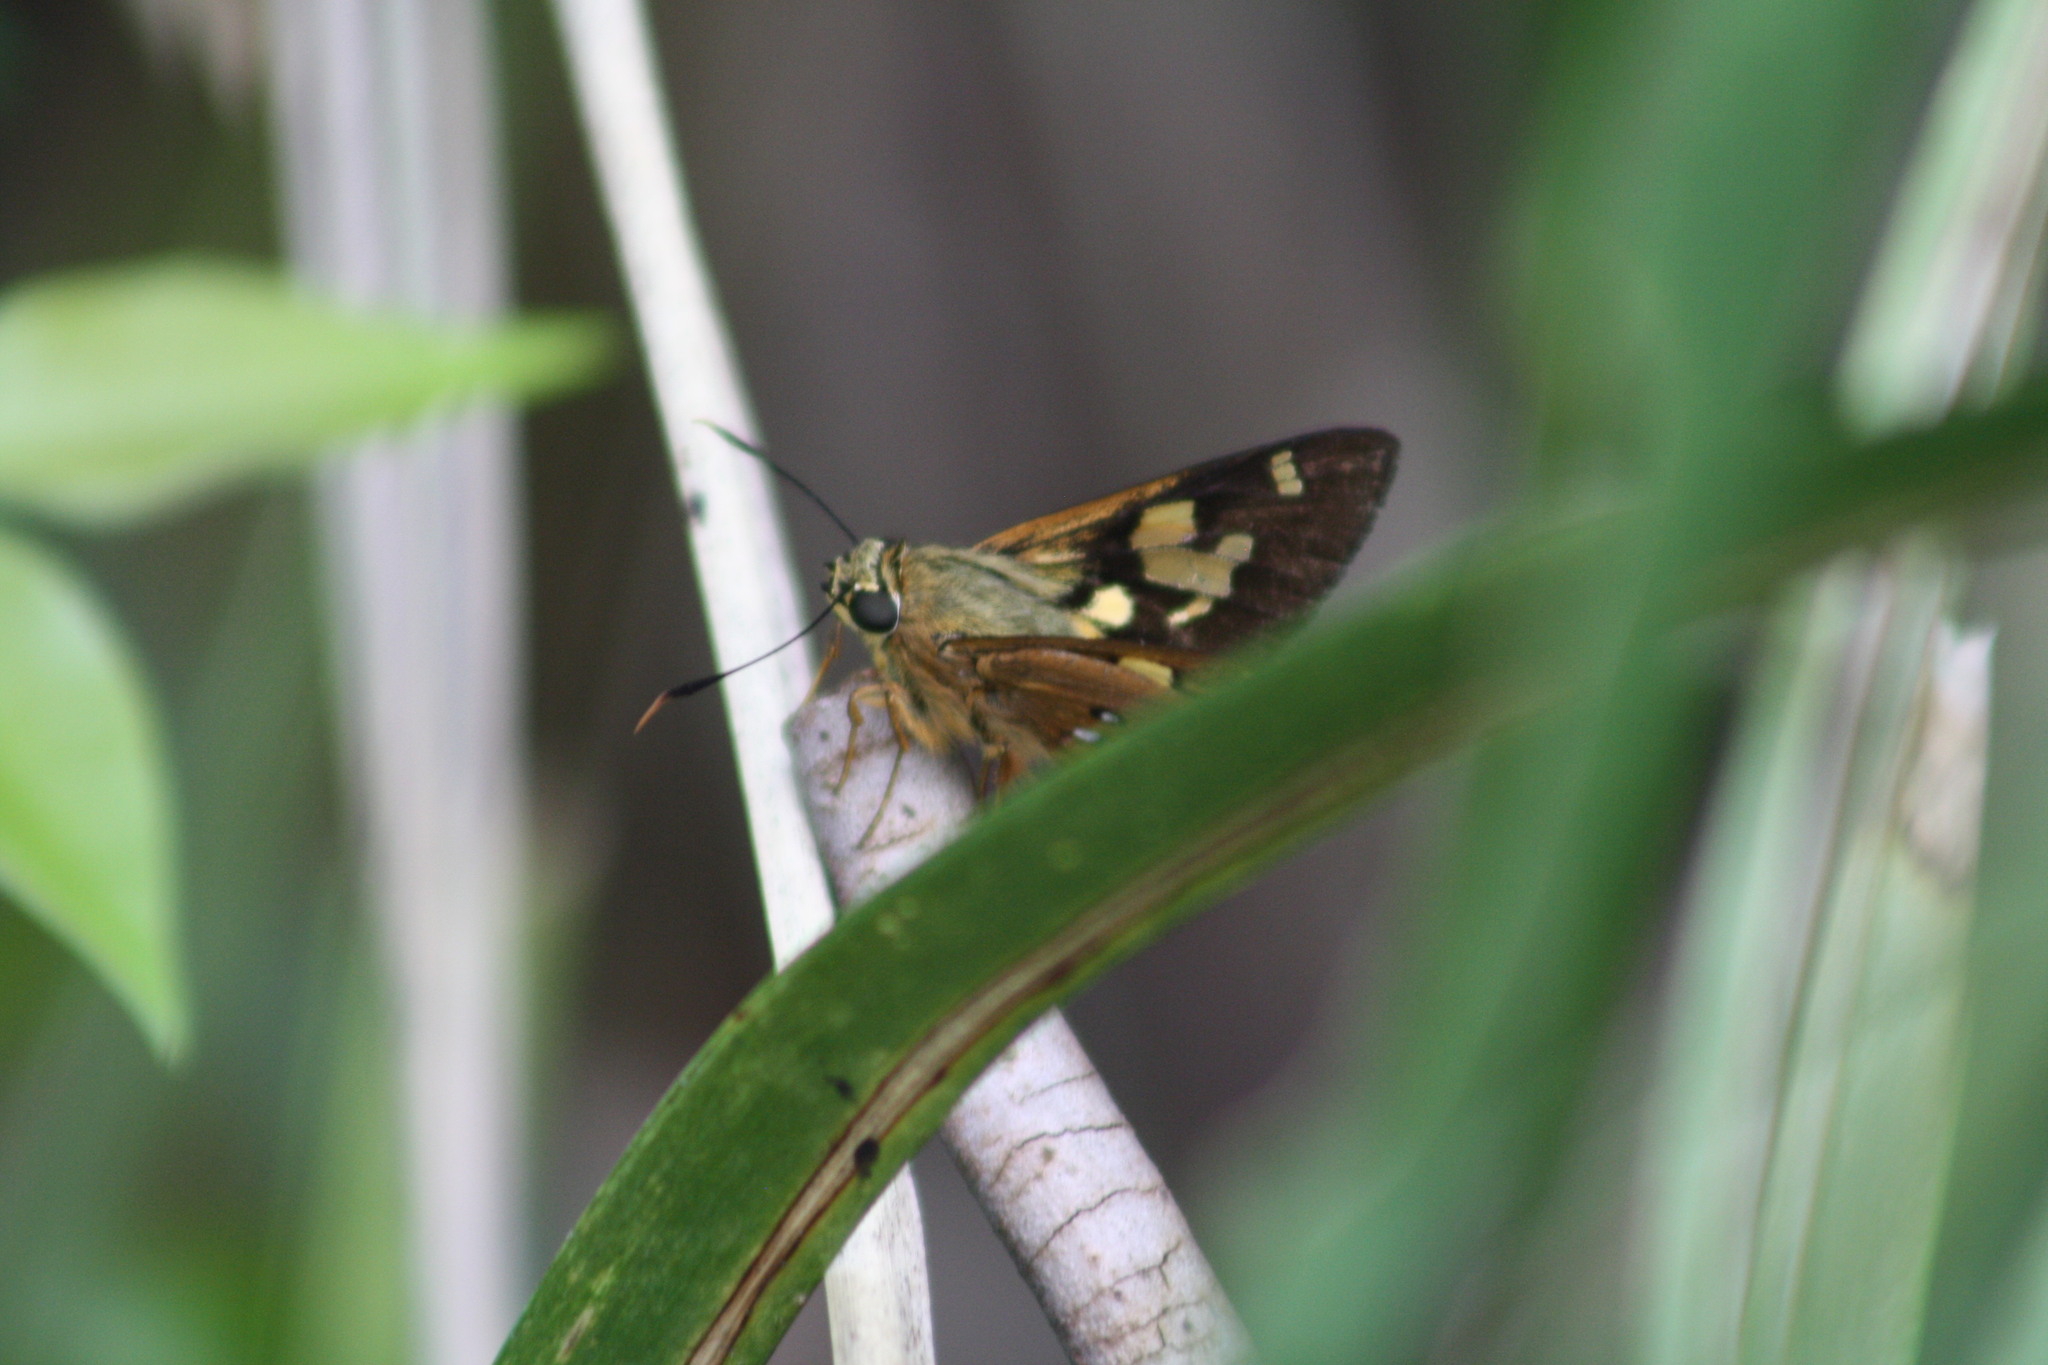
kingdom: Animalia
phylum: Arthropoda
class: Insecta
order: Lepidoptera
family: Hesperiidae
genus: Trapezites
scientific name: Trapezites symmomus
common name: Splendid ochre
